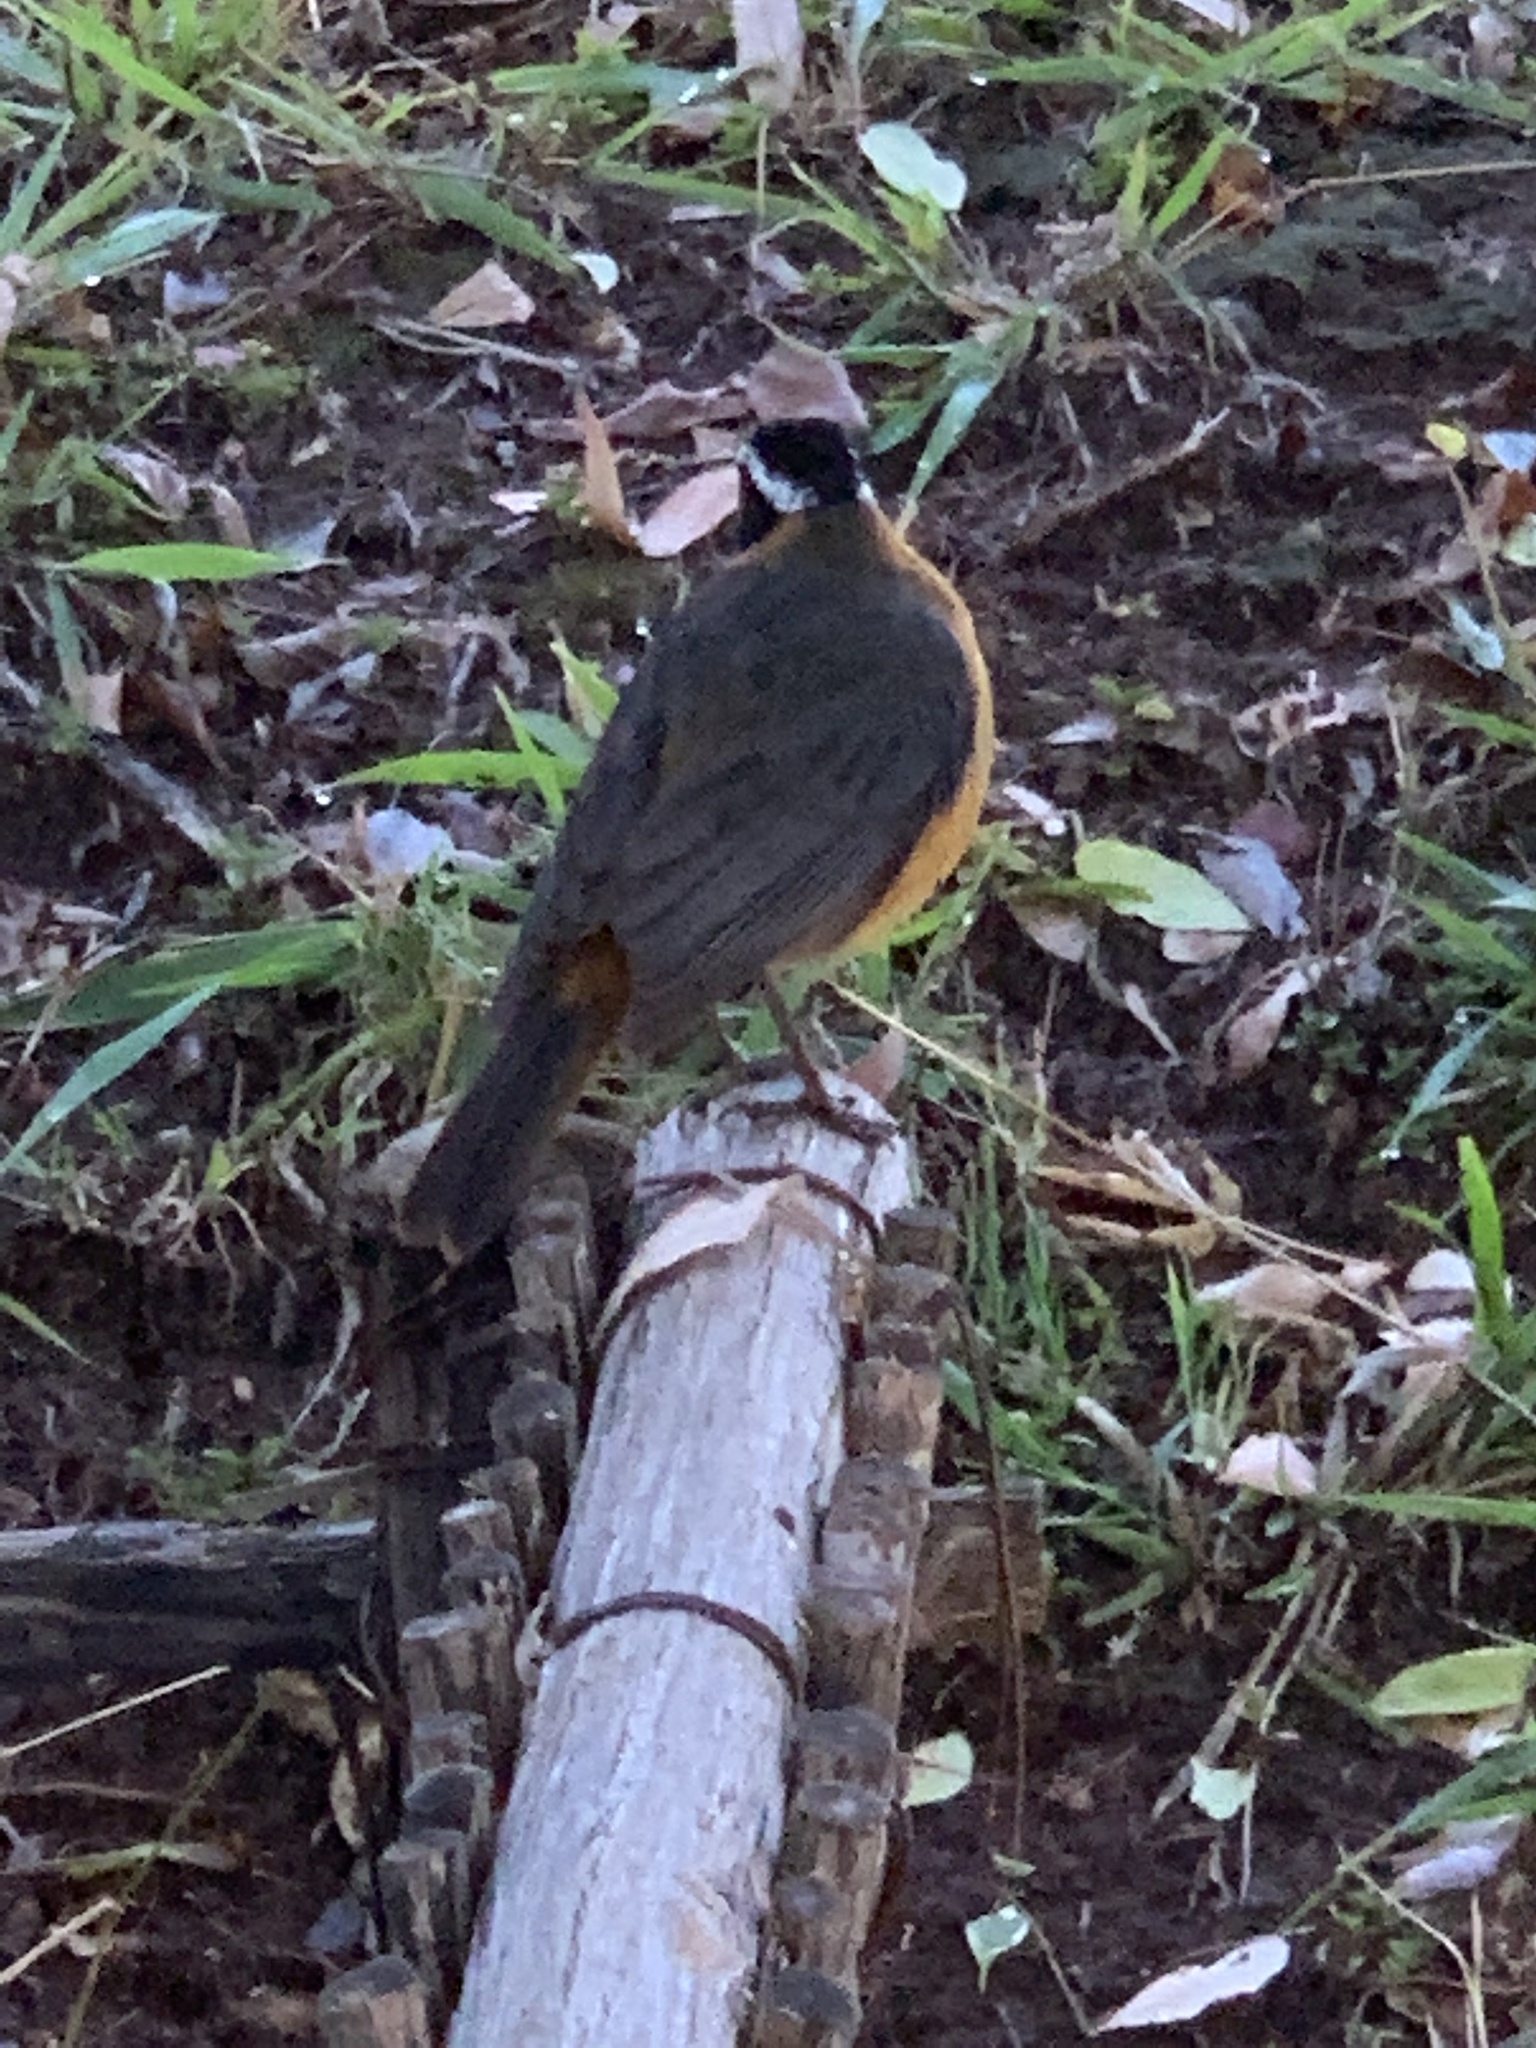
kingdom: Animalia
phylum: Chordata
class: Aves
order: Passeriformes
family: Muscicapidae
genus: Cossypha
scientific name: Cossypha heuglini
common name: White-browed robin-chat
